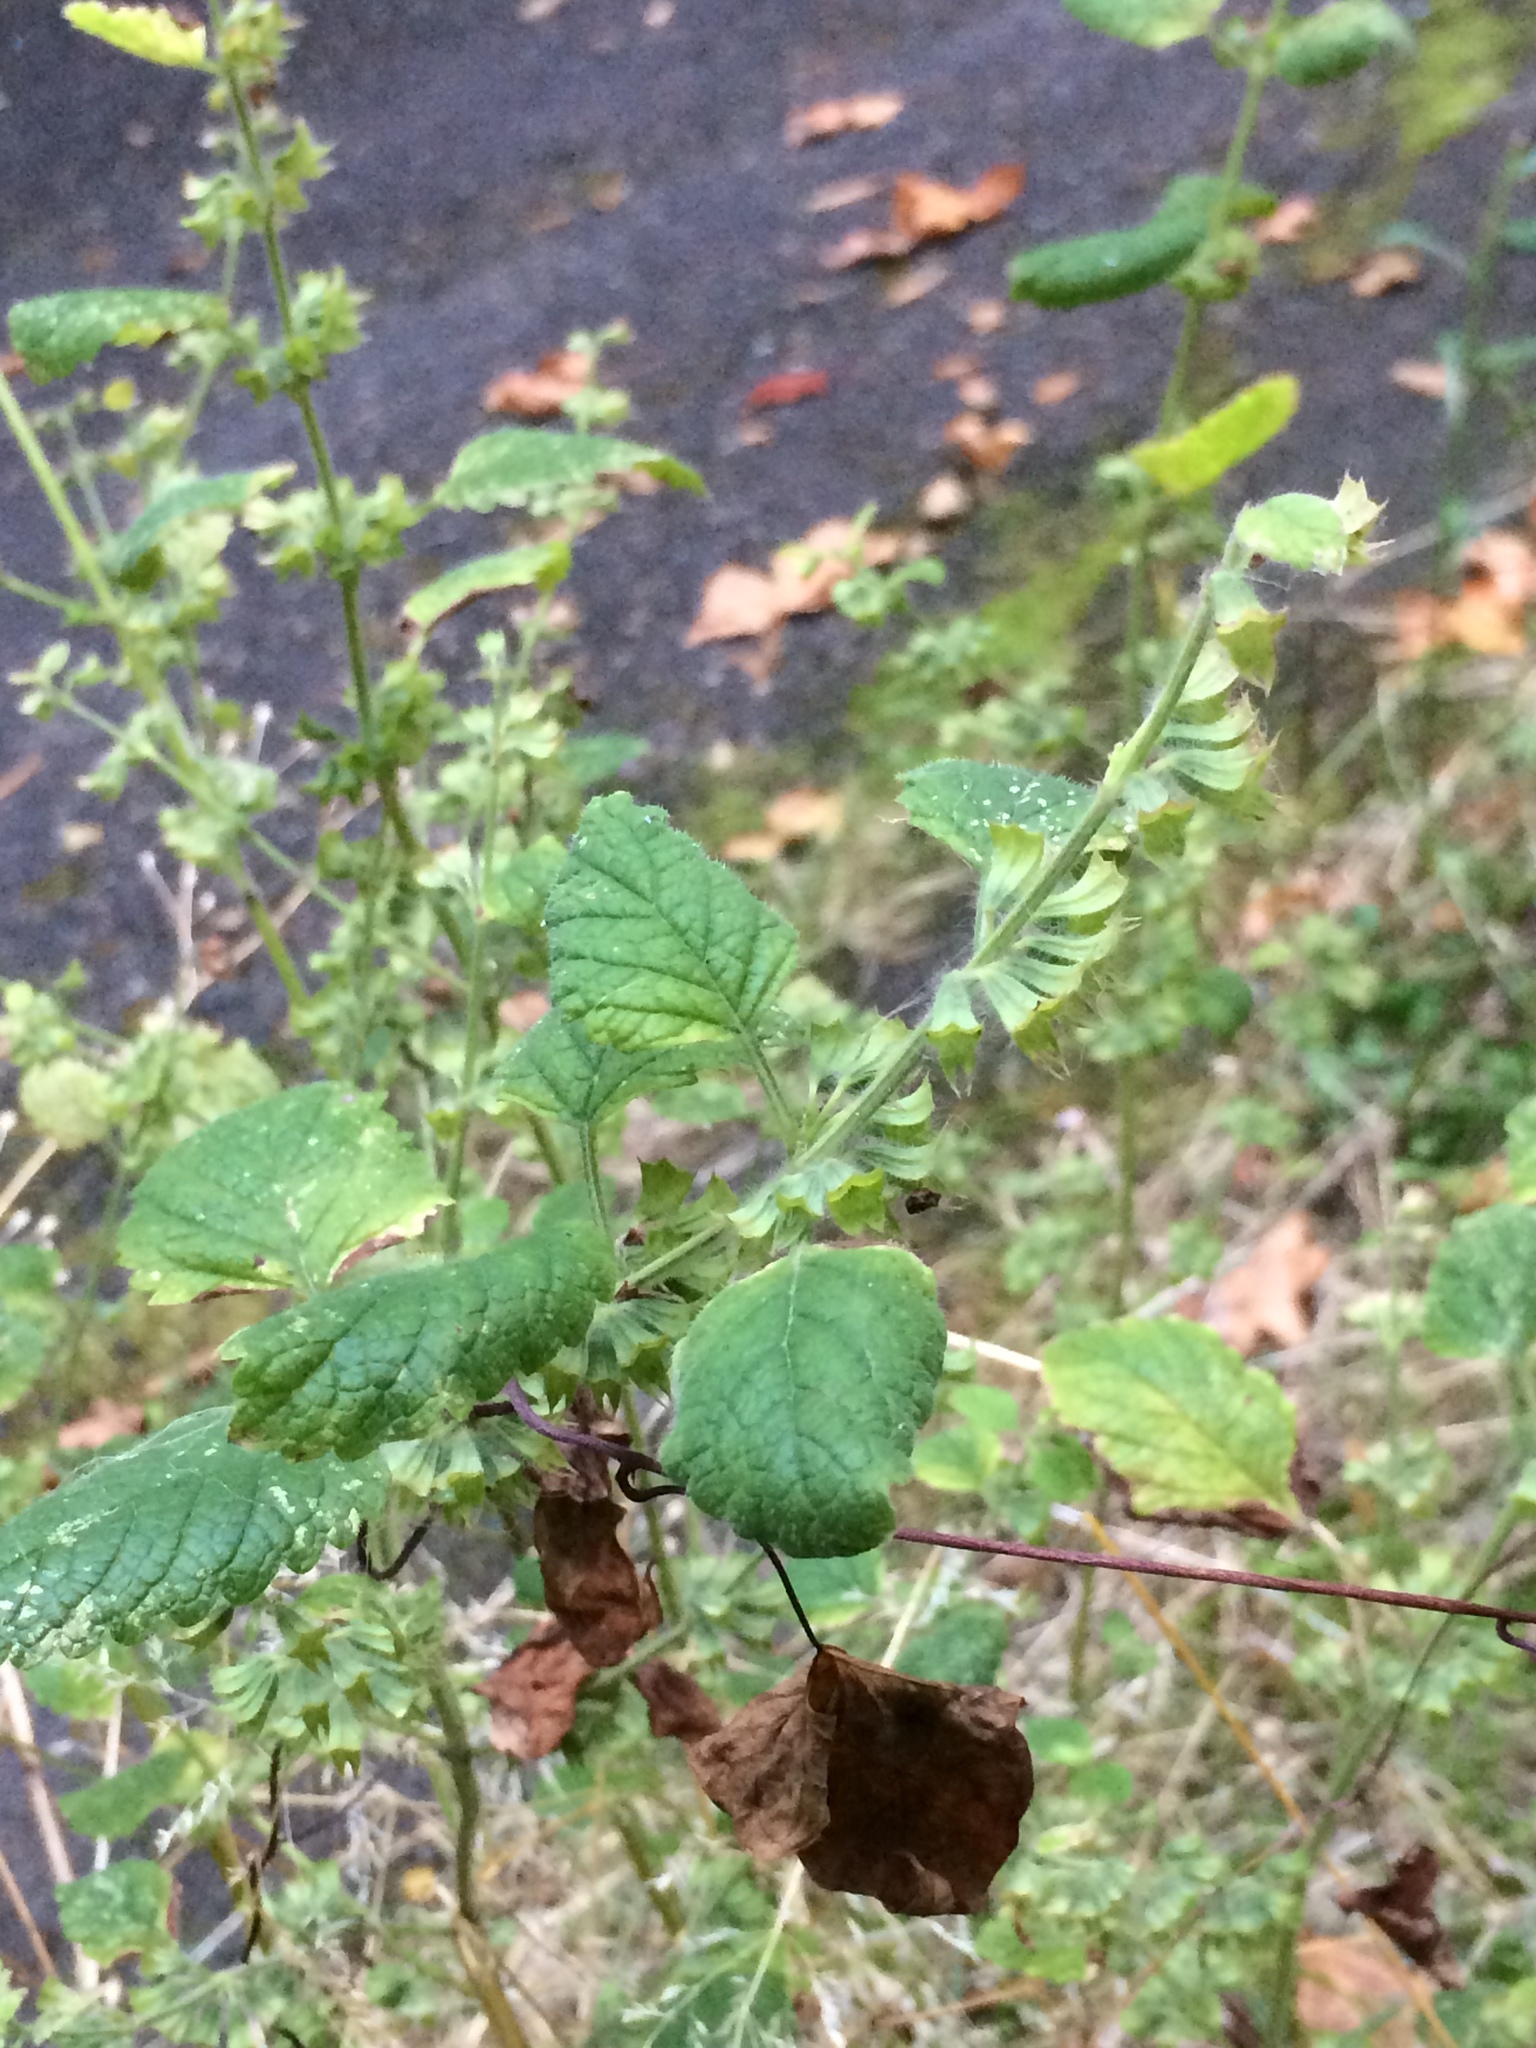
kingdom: Plantae
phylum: Tracheophyta
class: Magnoliopsida
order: Lamiales
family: Lamiaceae
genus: Melissa
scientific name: Melissa officinalis
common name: Balm
